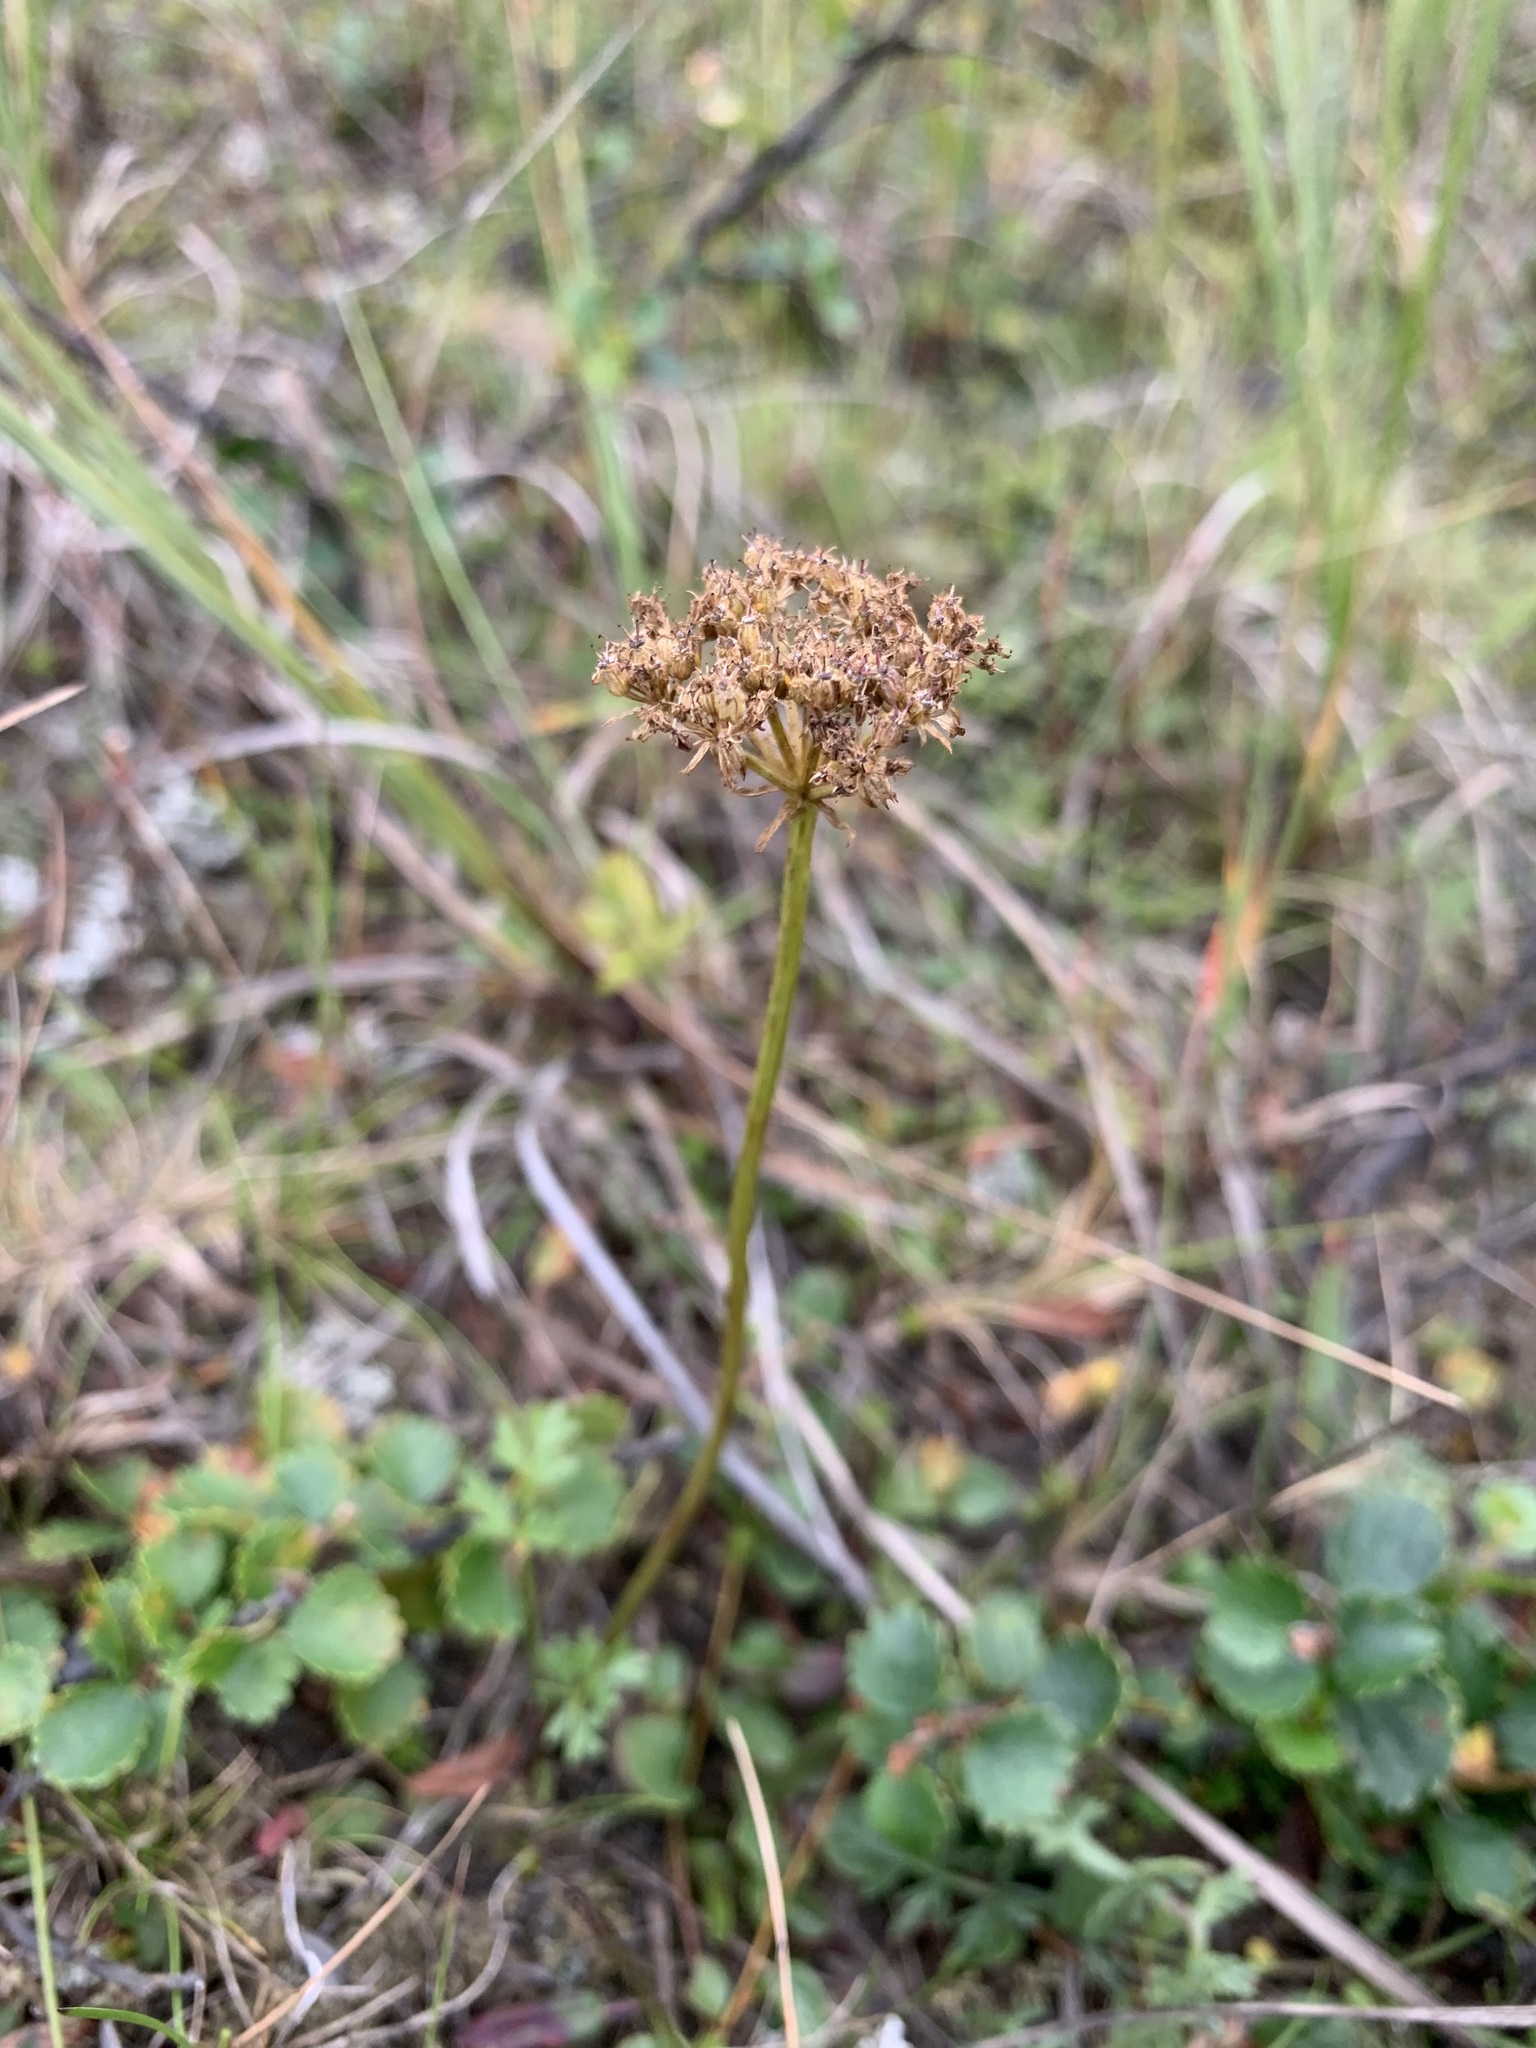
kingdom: Plantae
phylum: Tracheophyta
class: Magnoliopsida
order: Apiales
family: Apiaceae
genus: Pachypleurum
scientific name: Pachypleurum mutellinoides
